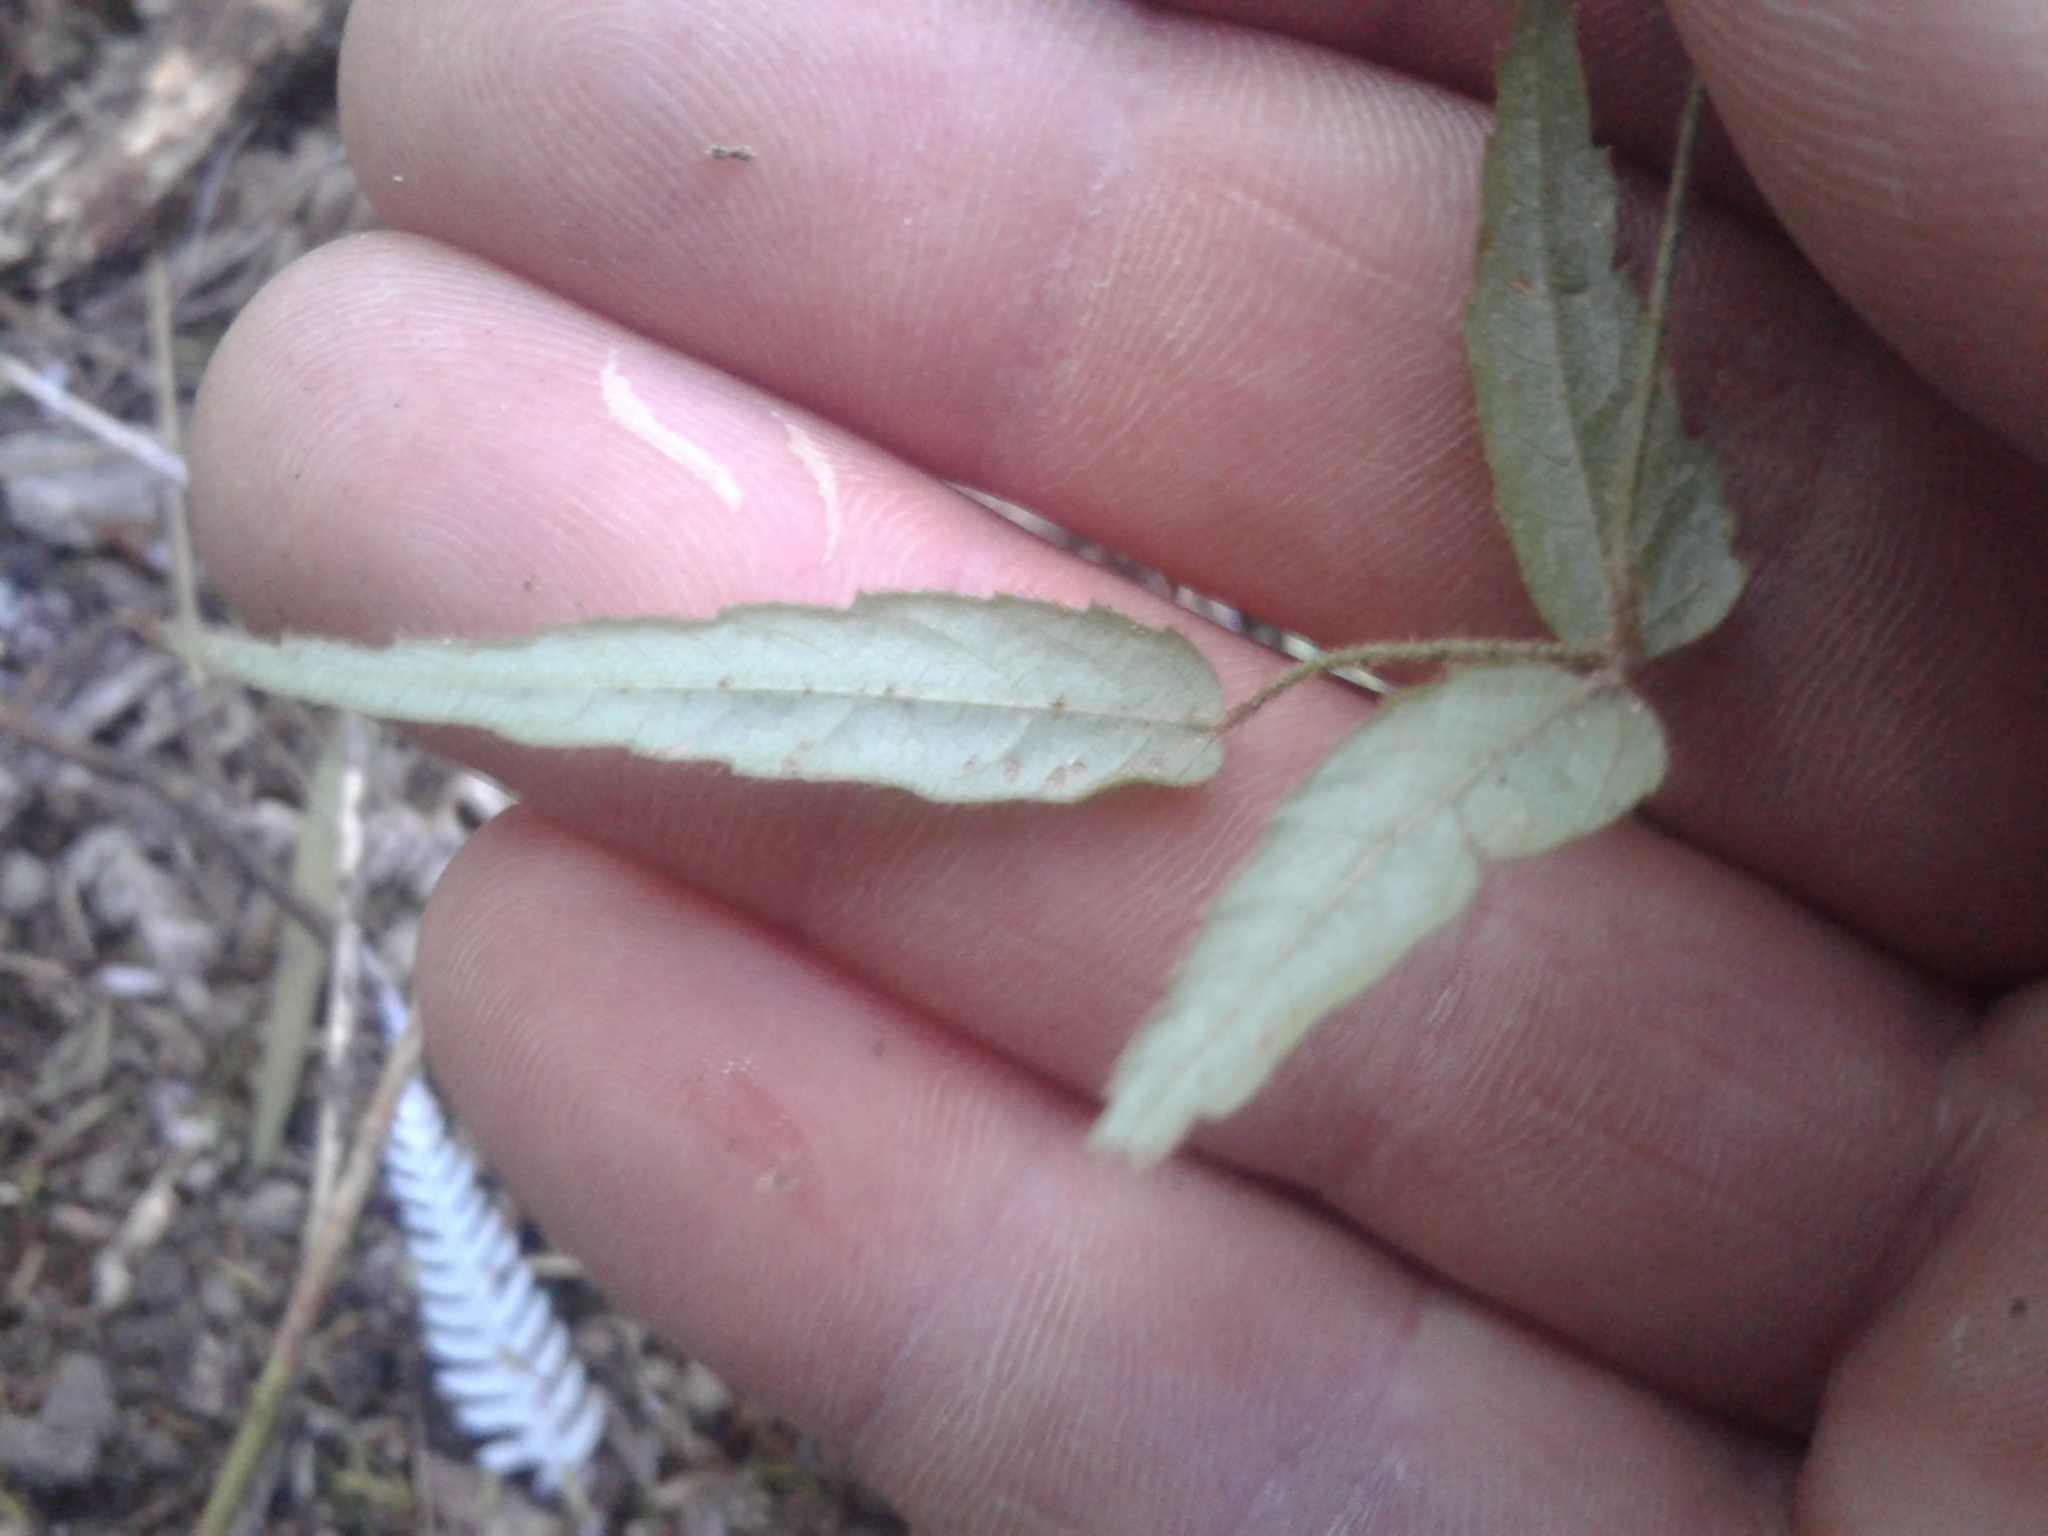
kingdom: Plantae
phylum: Tracheophyta
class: Magnoliopsida
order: Rosales
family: Rosaceae
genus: Rubus
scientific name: Rubus schmidelioides
